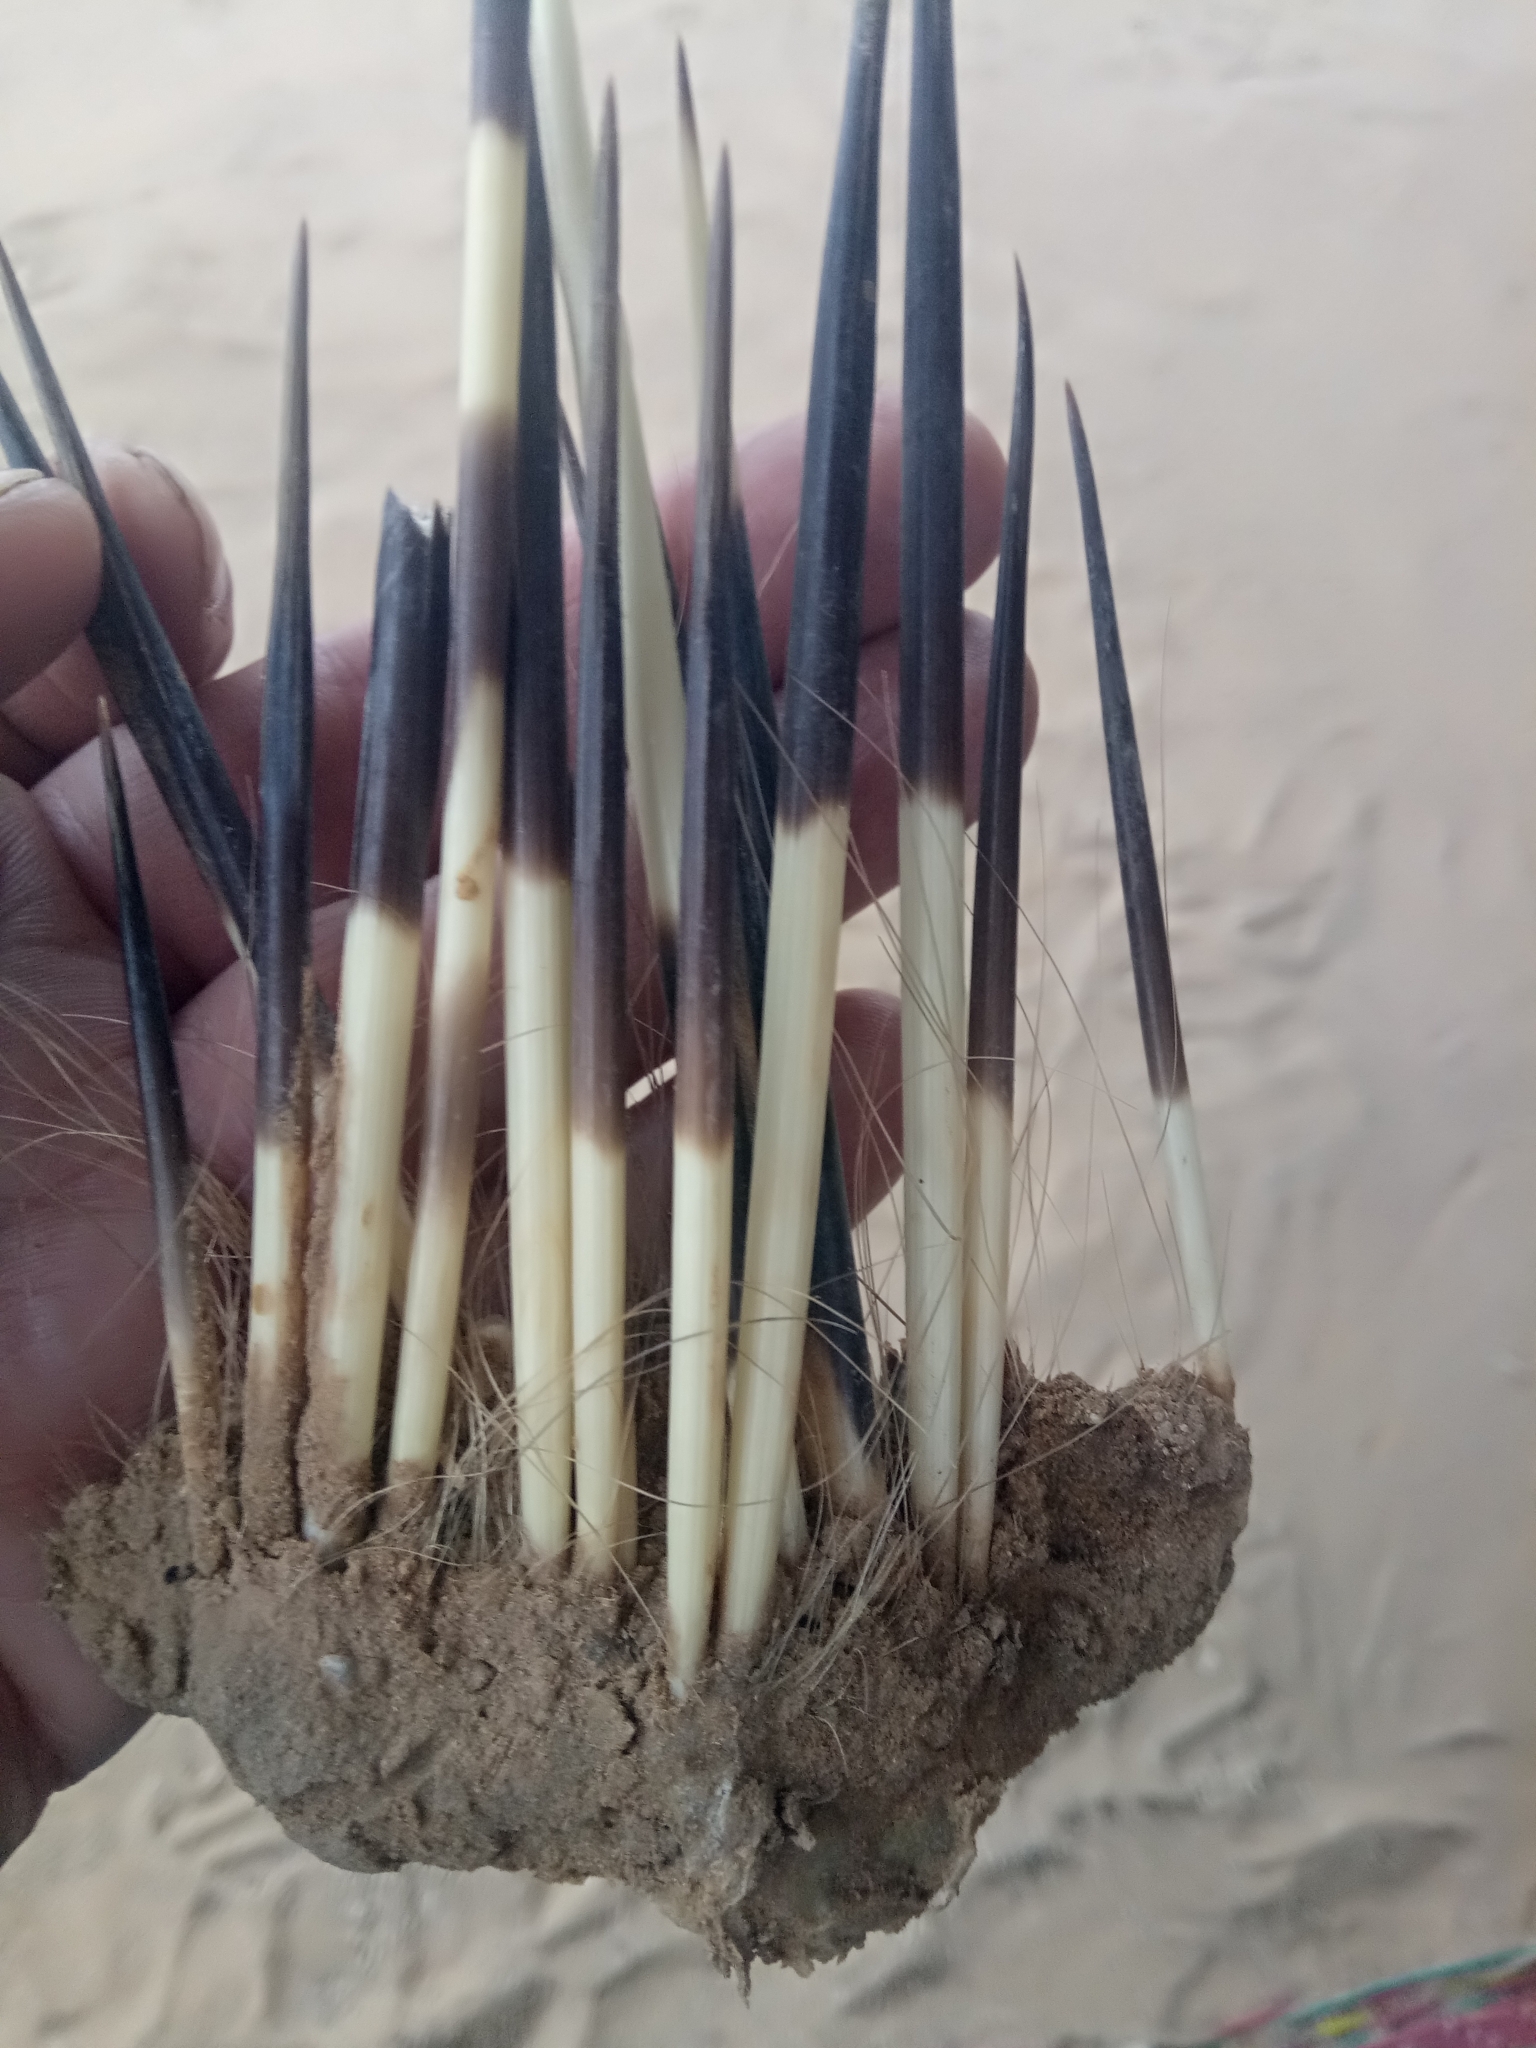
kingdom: Animalia
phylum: Chordata
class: Mammalia
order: Rodentia
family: Hystricidae
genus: Hystrix
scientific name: Hystrix cristata
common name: Crested porcupine
